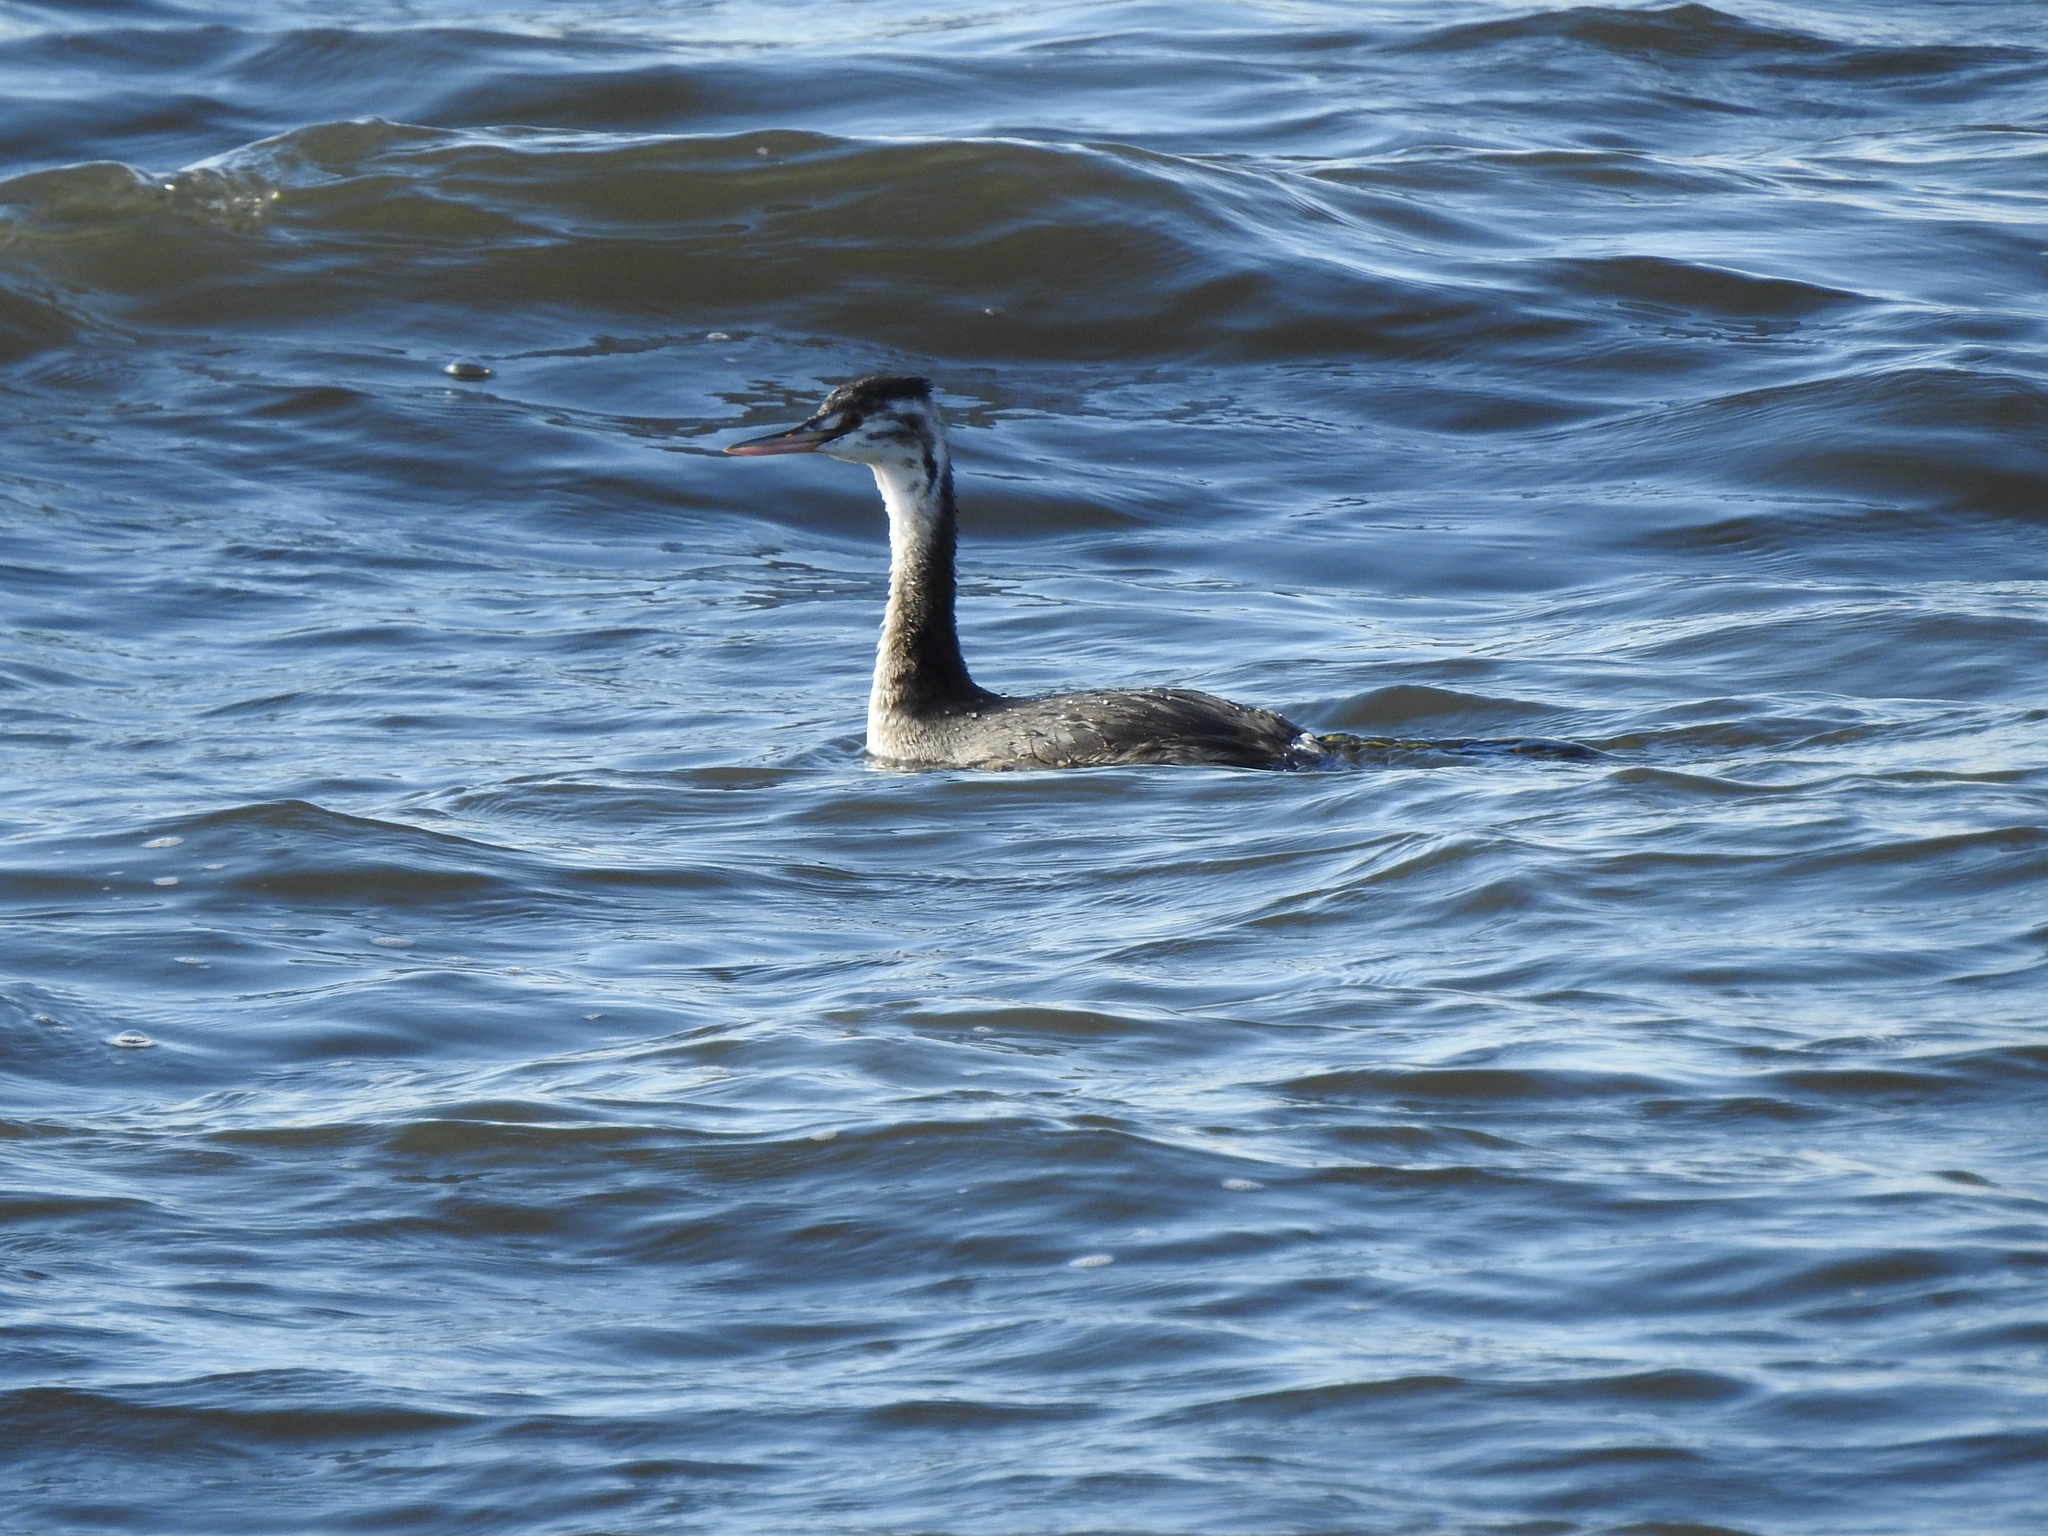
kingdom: Animalia
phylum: Chordata
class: Aves
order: Podicipediformes
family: Podicipedidae
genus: Podiceps
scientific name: Podiceps cristatus
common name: Great crested grebe
